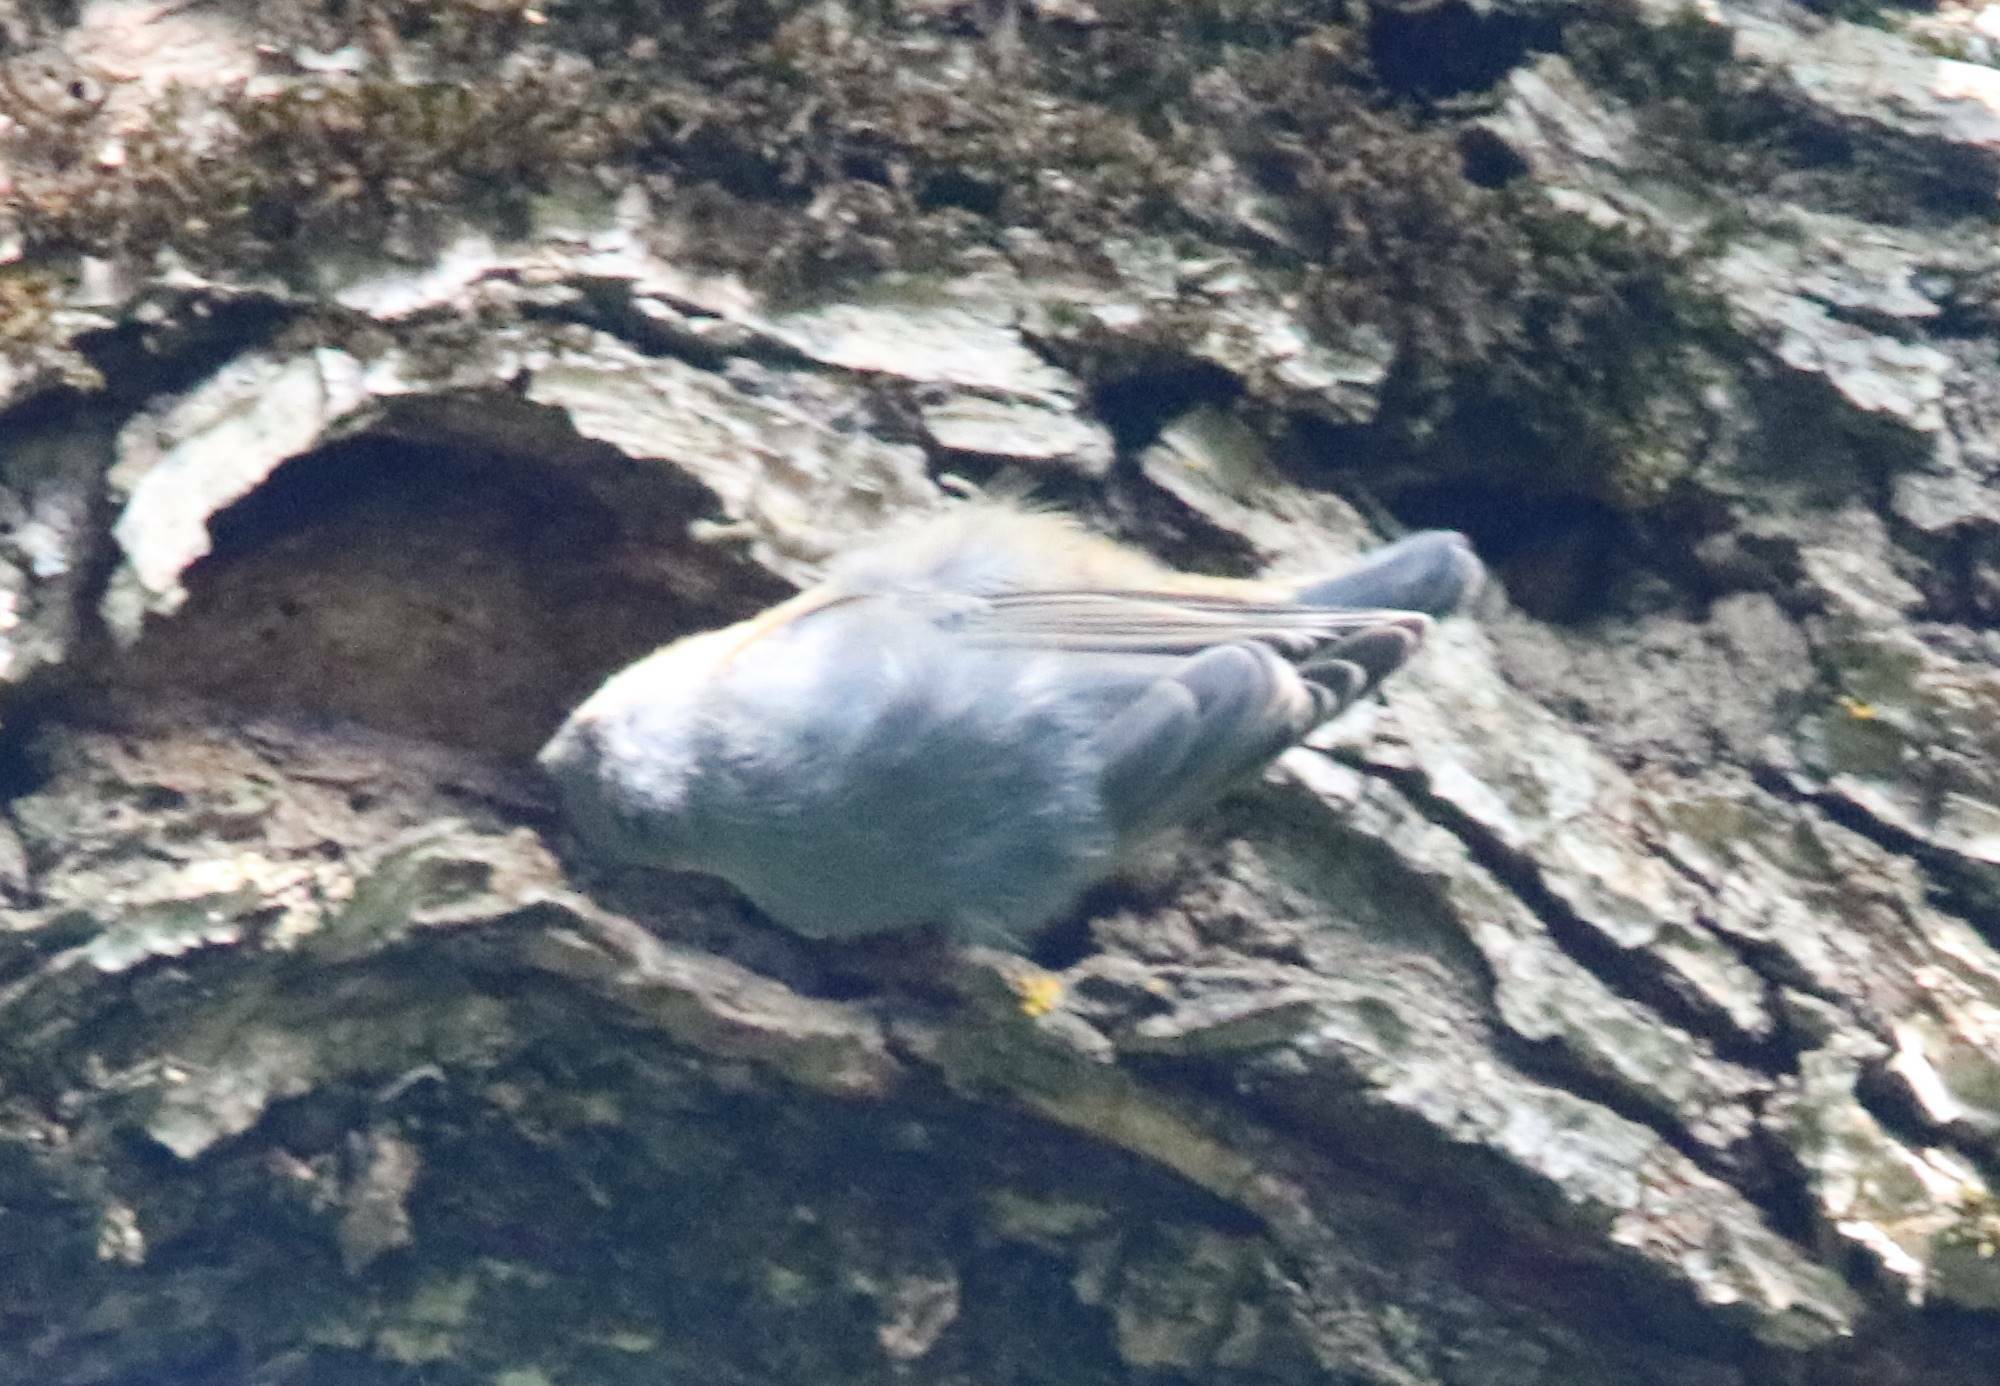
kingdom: Animalia
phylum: Chordata
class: Aves
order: Passeriformes
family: Sittidae
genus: Sitta
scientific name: Sitta ledanti
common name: Algerian nuthatch
